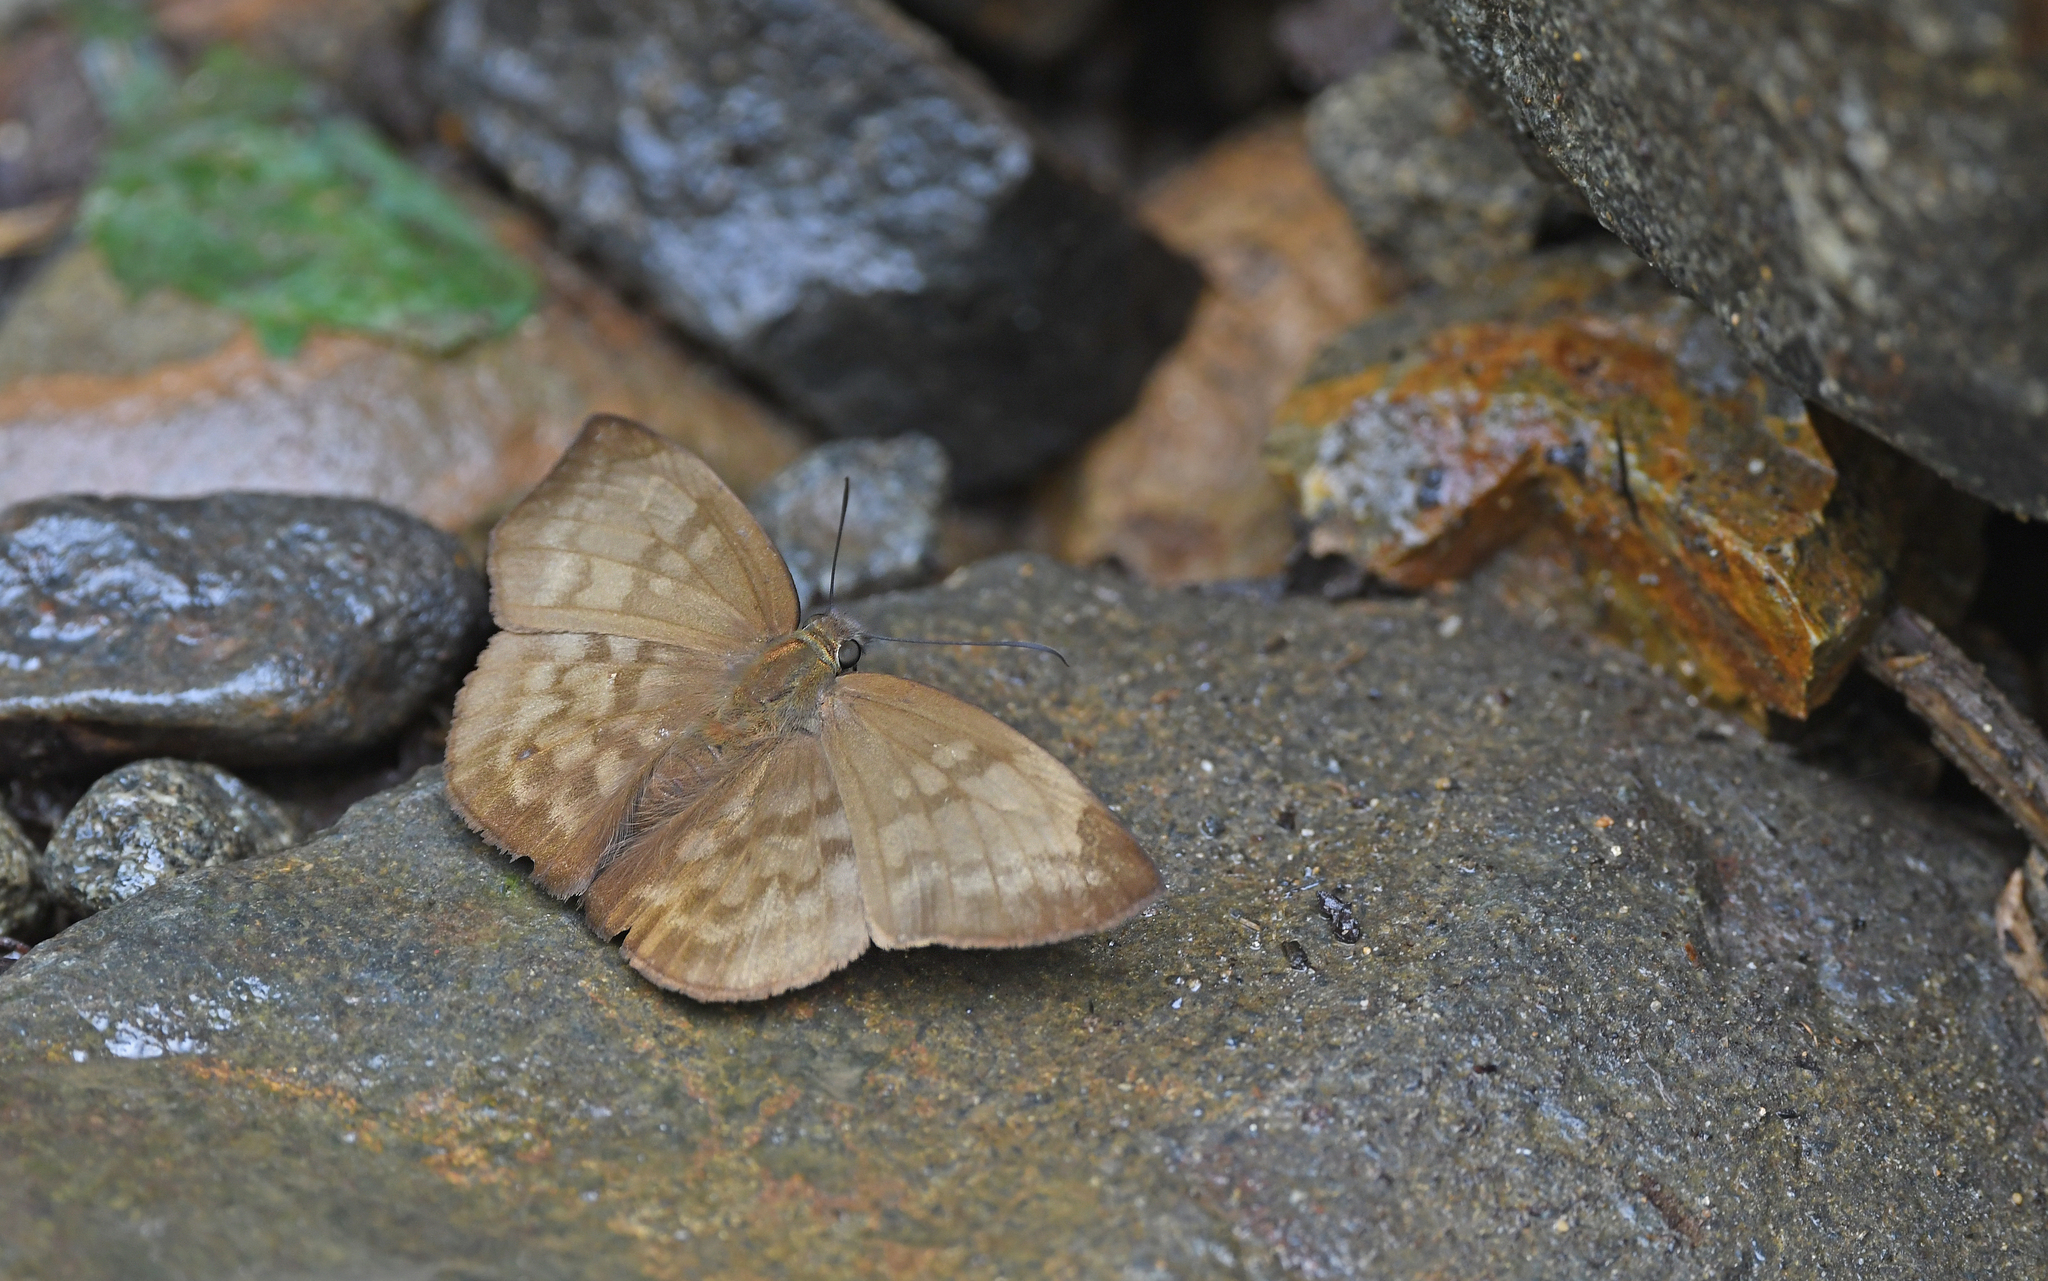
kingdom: Animalia
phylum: Arthropoda
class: Insecta
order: Lepidoptera
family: Hesperiidae
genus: Achlyodes
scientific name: Achlyodes pallida
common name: Pale sicklewing
